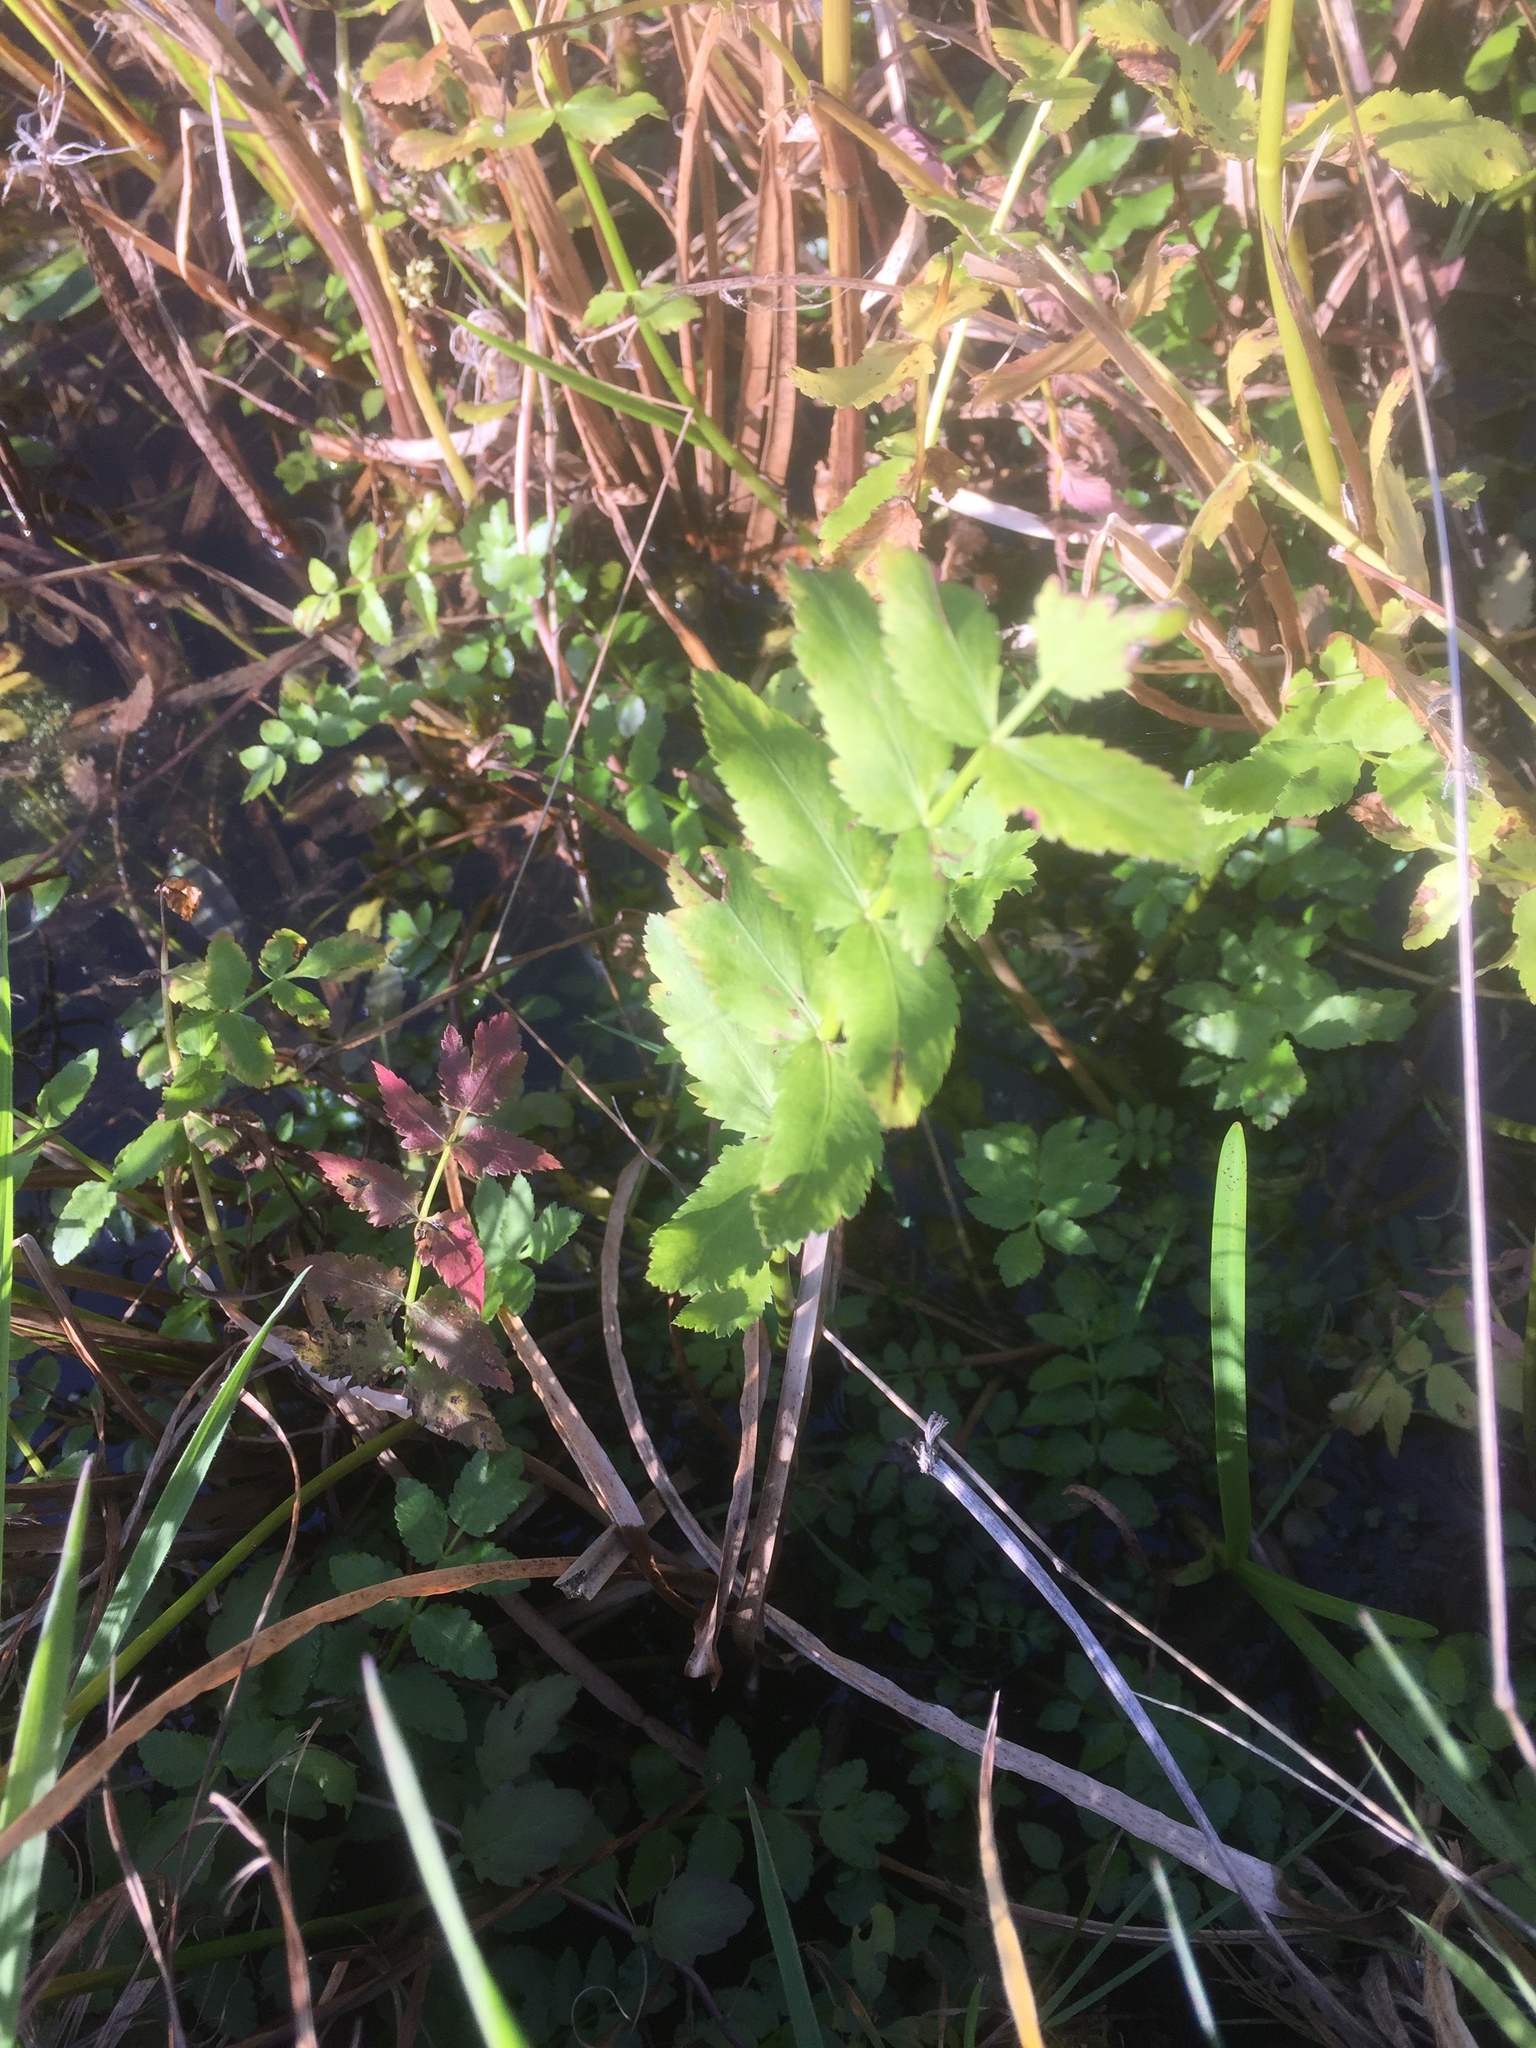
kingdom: Plantae
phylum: Tracheophyta
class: Magnoliopsida
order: Apiales
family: Apiaceae
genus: Helosciadium
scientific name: Helosciadium nodiflorum
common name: Fool's-watercress
